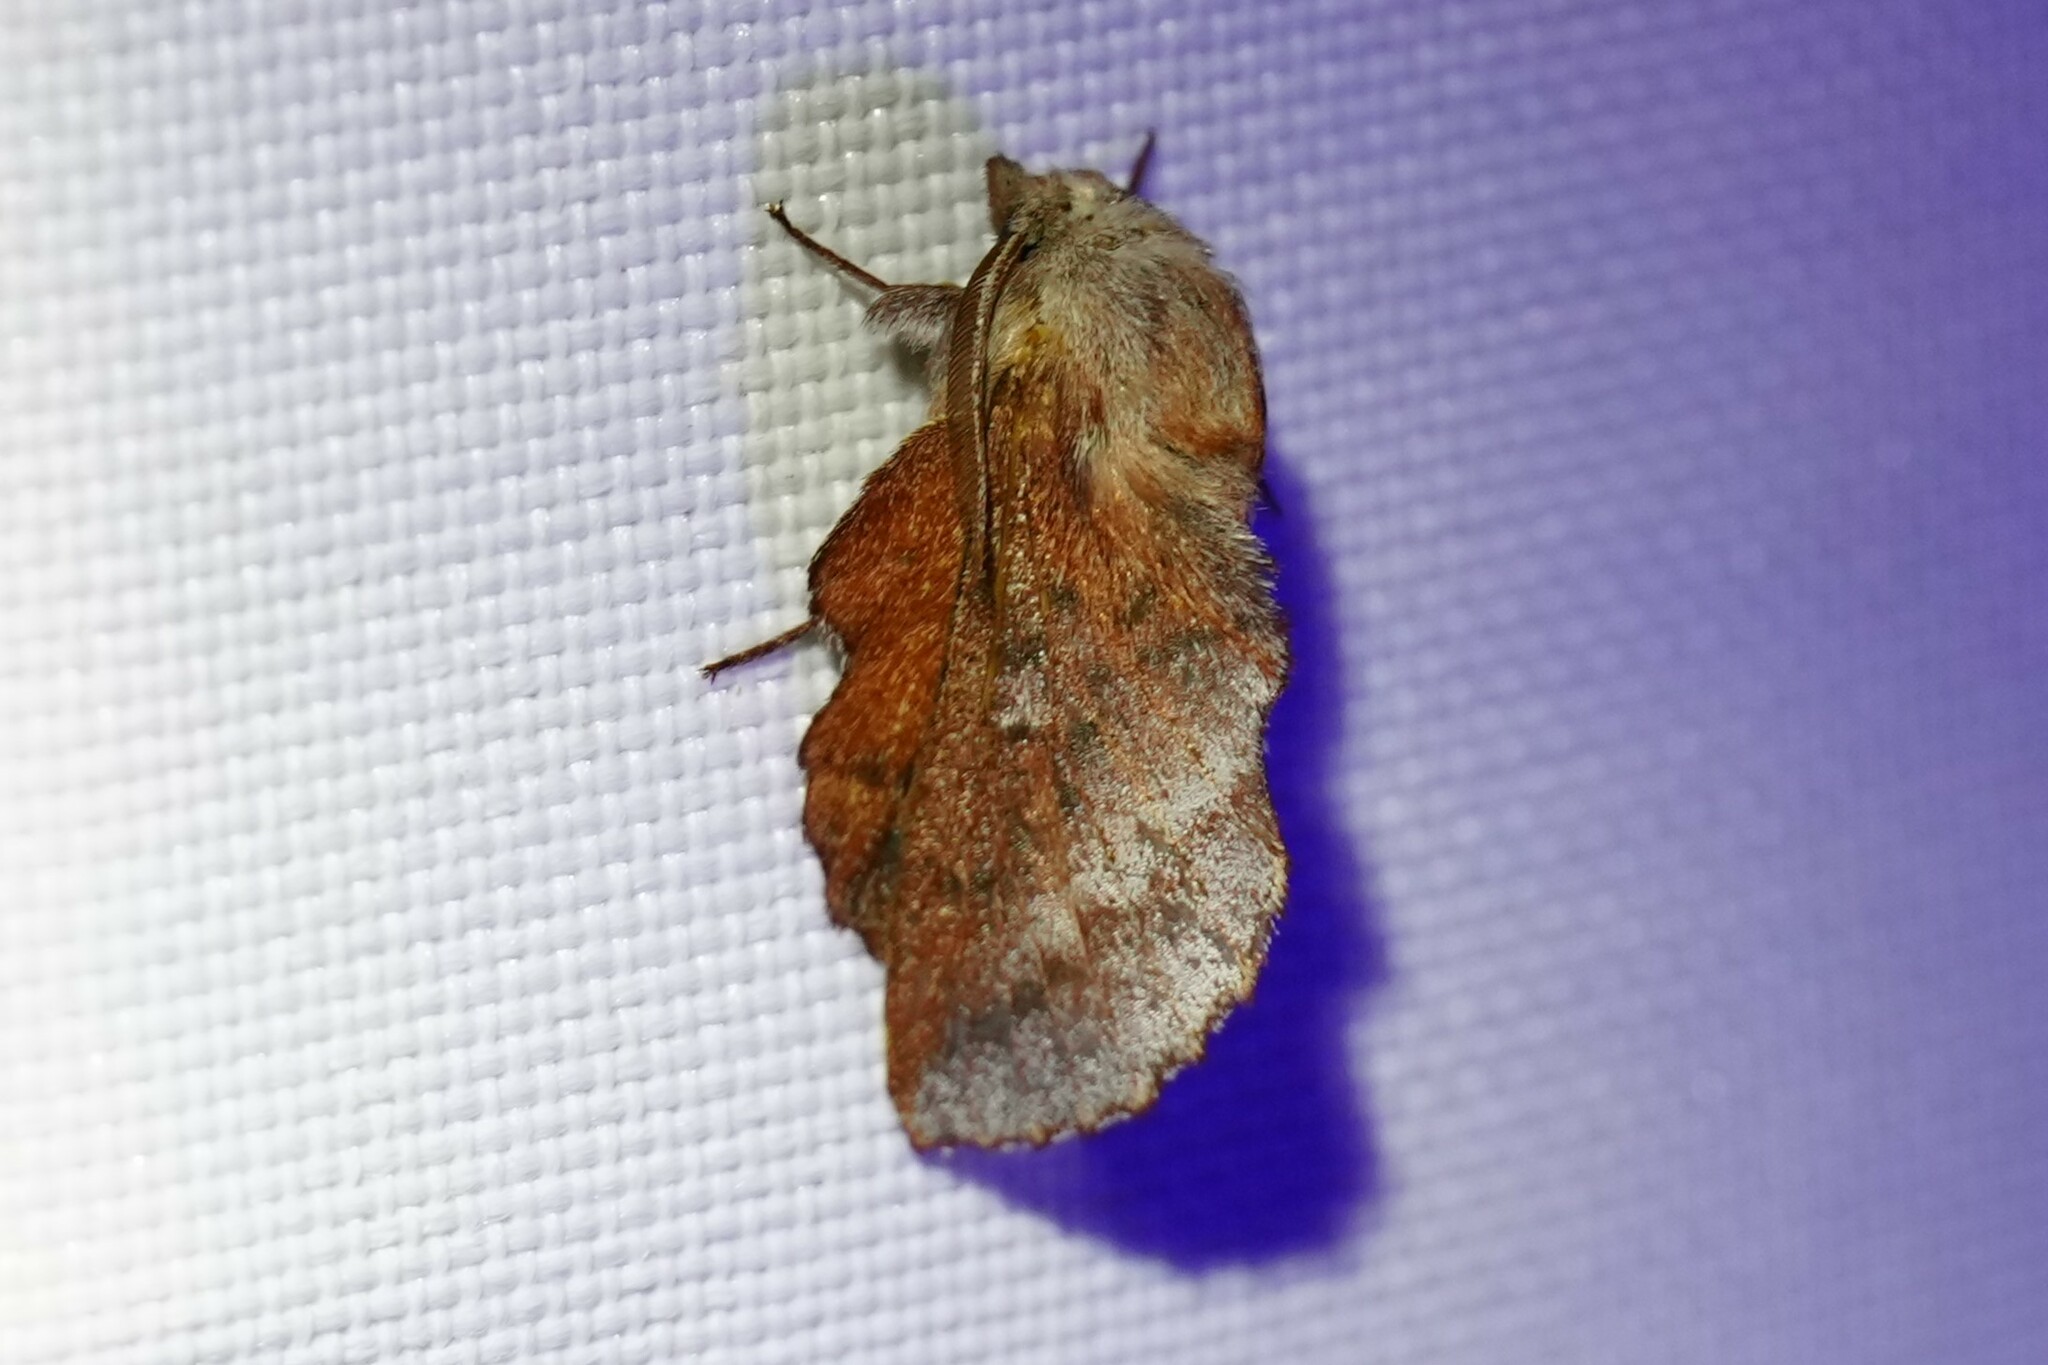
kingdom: Animalia
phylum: Arthropoda
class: Insecta
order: Lepidoptera
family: Lasiocampidae
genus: Phyllodesma
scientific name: Phyllodesma americana
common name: American lappet moth
